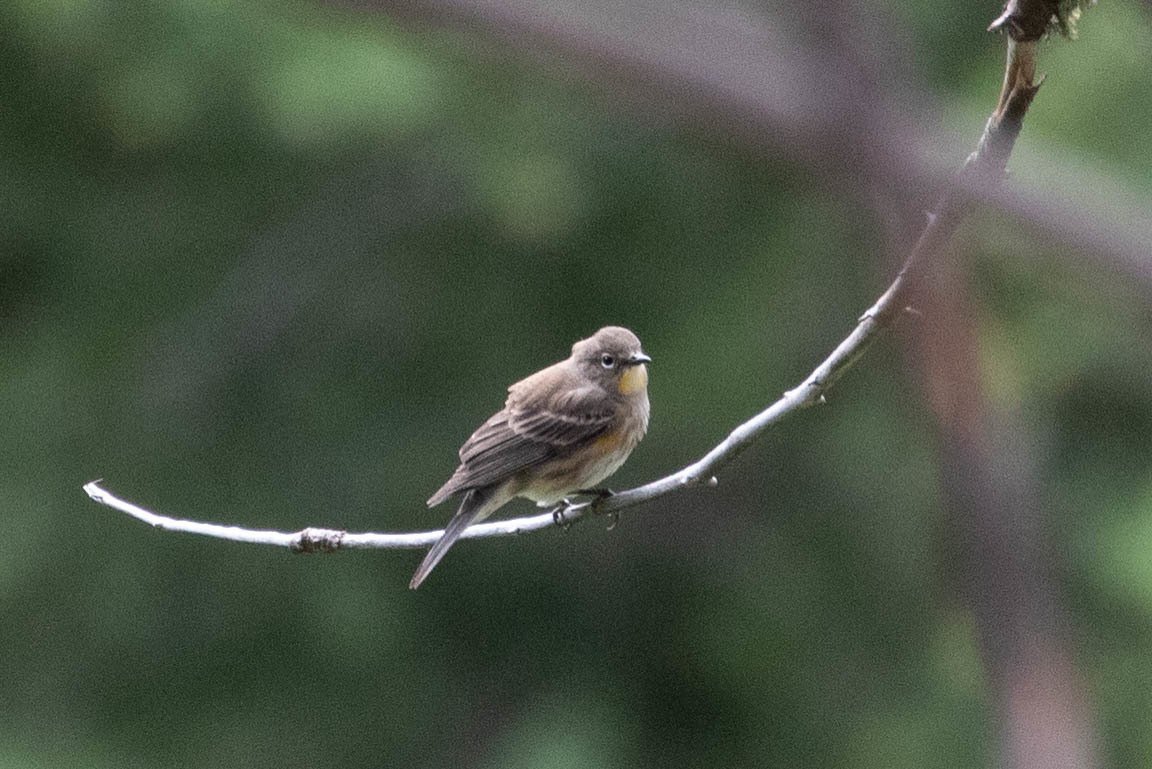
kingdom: Animalia
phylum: Chordata
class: Aves
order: Passeriformes
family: Parulidae
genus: Setophaga
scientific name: Setophaga coronata
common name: Myrtle warbler
